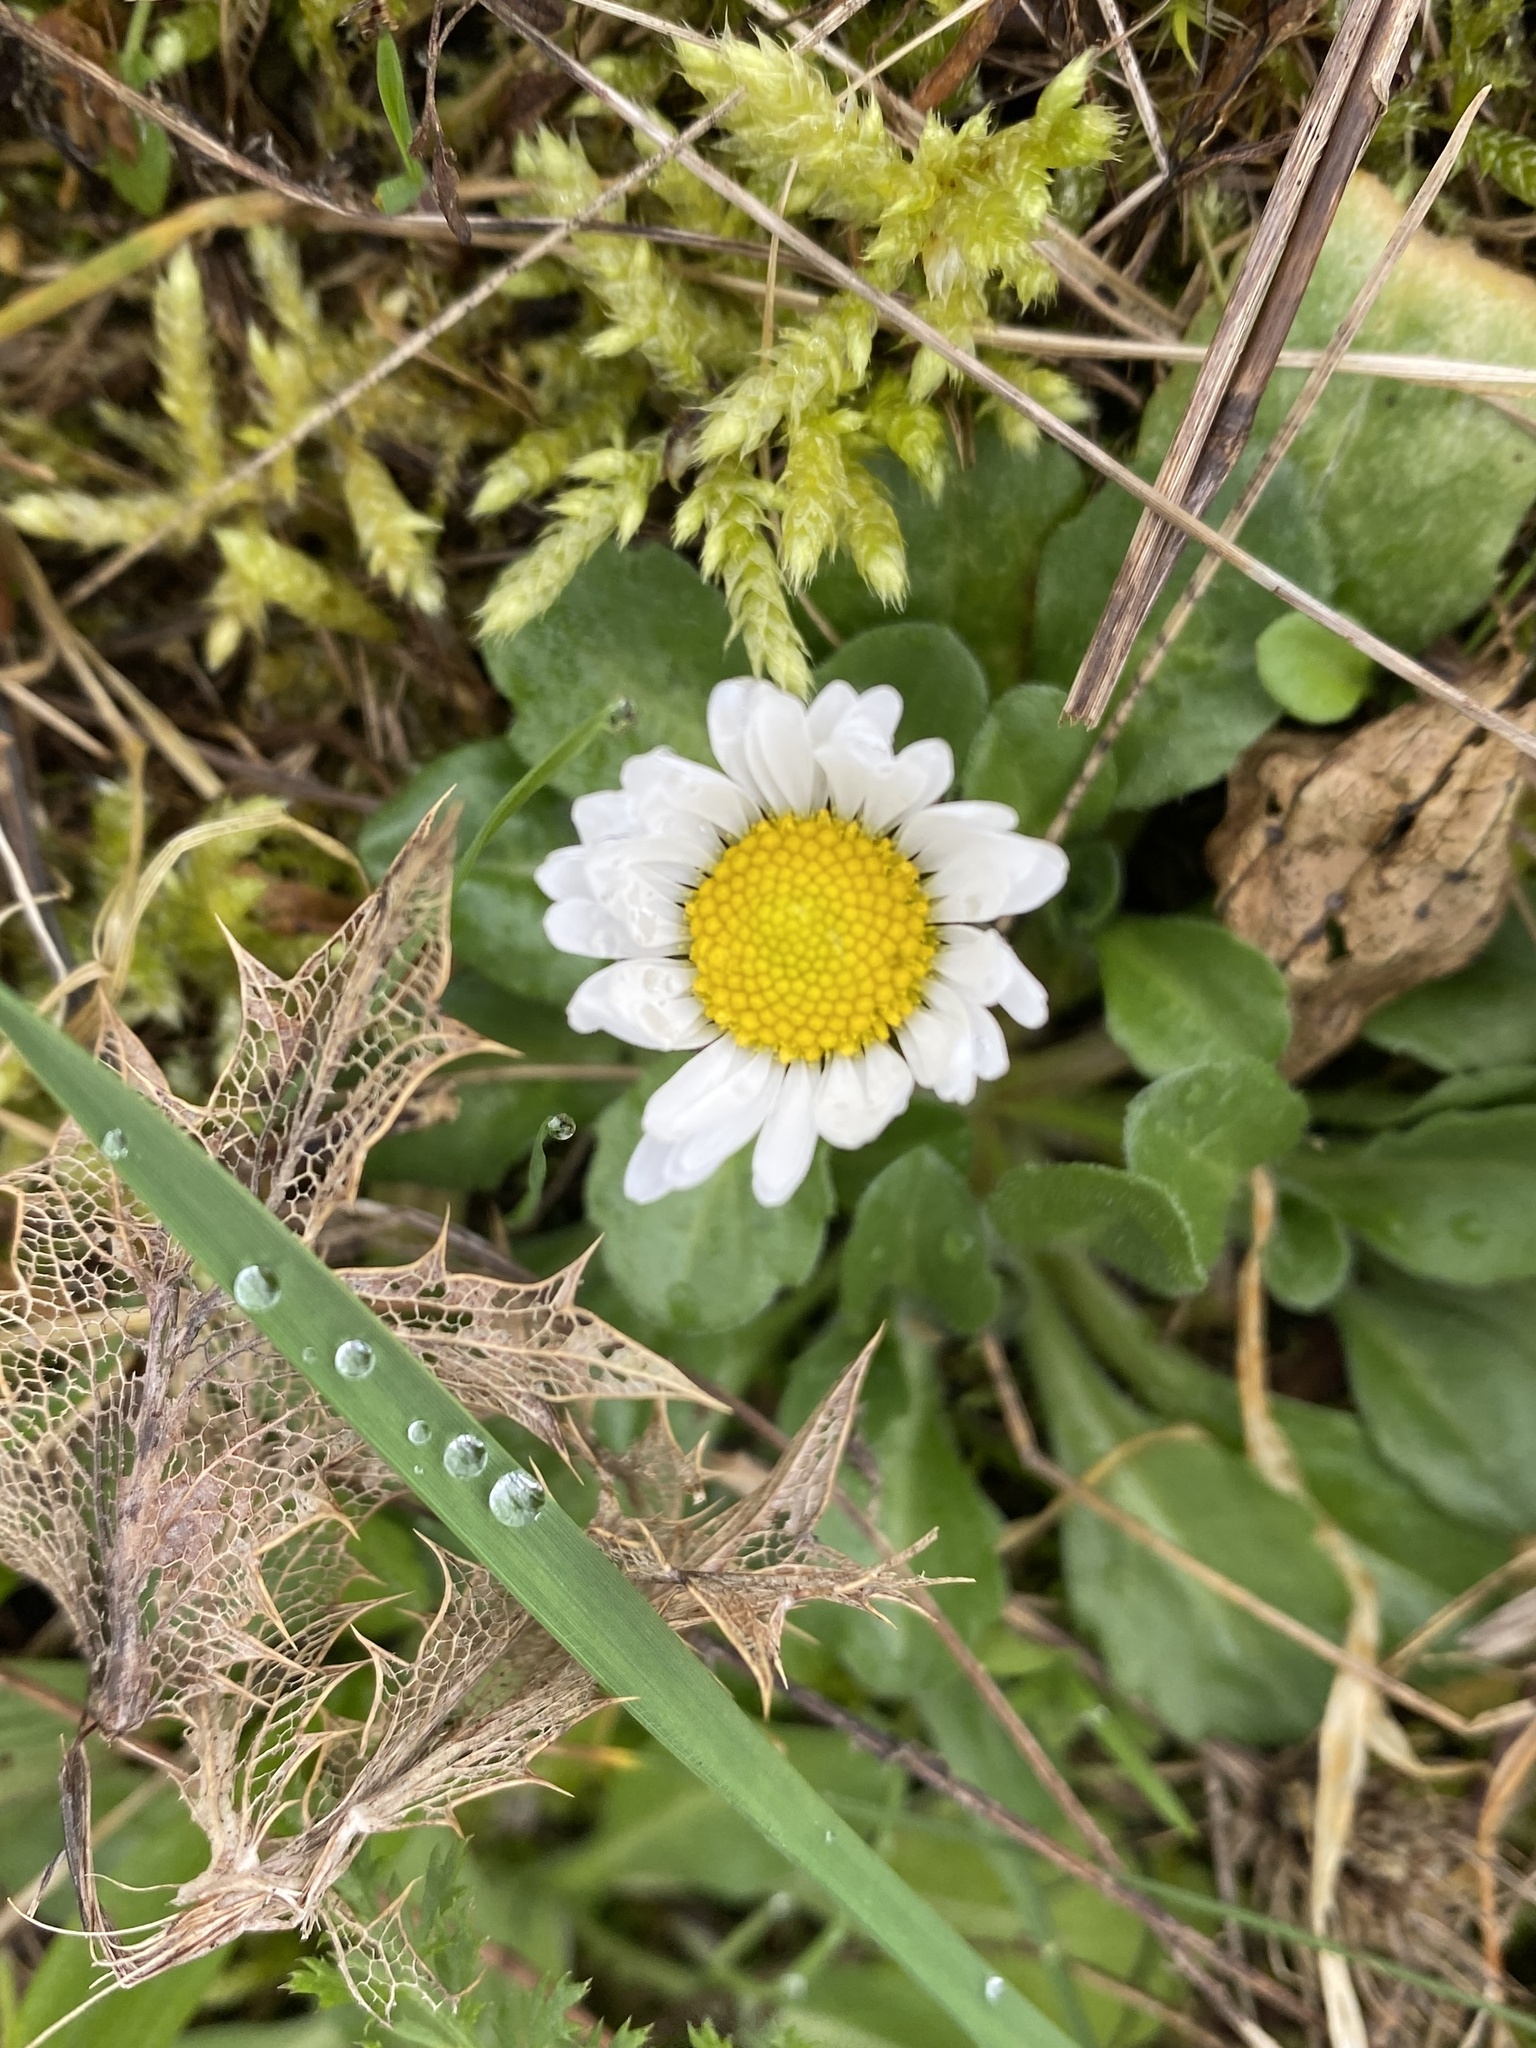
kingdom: Plantae
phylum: Tracheophyta
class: Magnoliopsida
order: Asterales
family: Asteraceae
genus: Bellis
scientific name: Bellis perennis
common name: Lawndaisy
